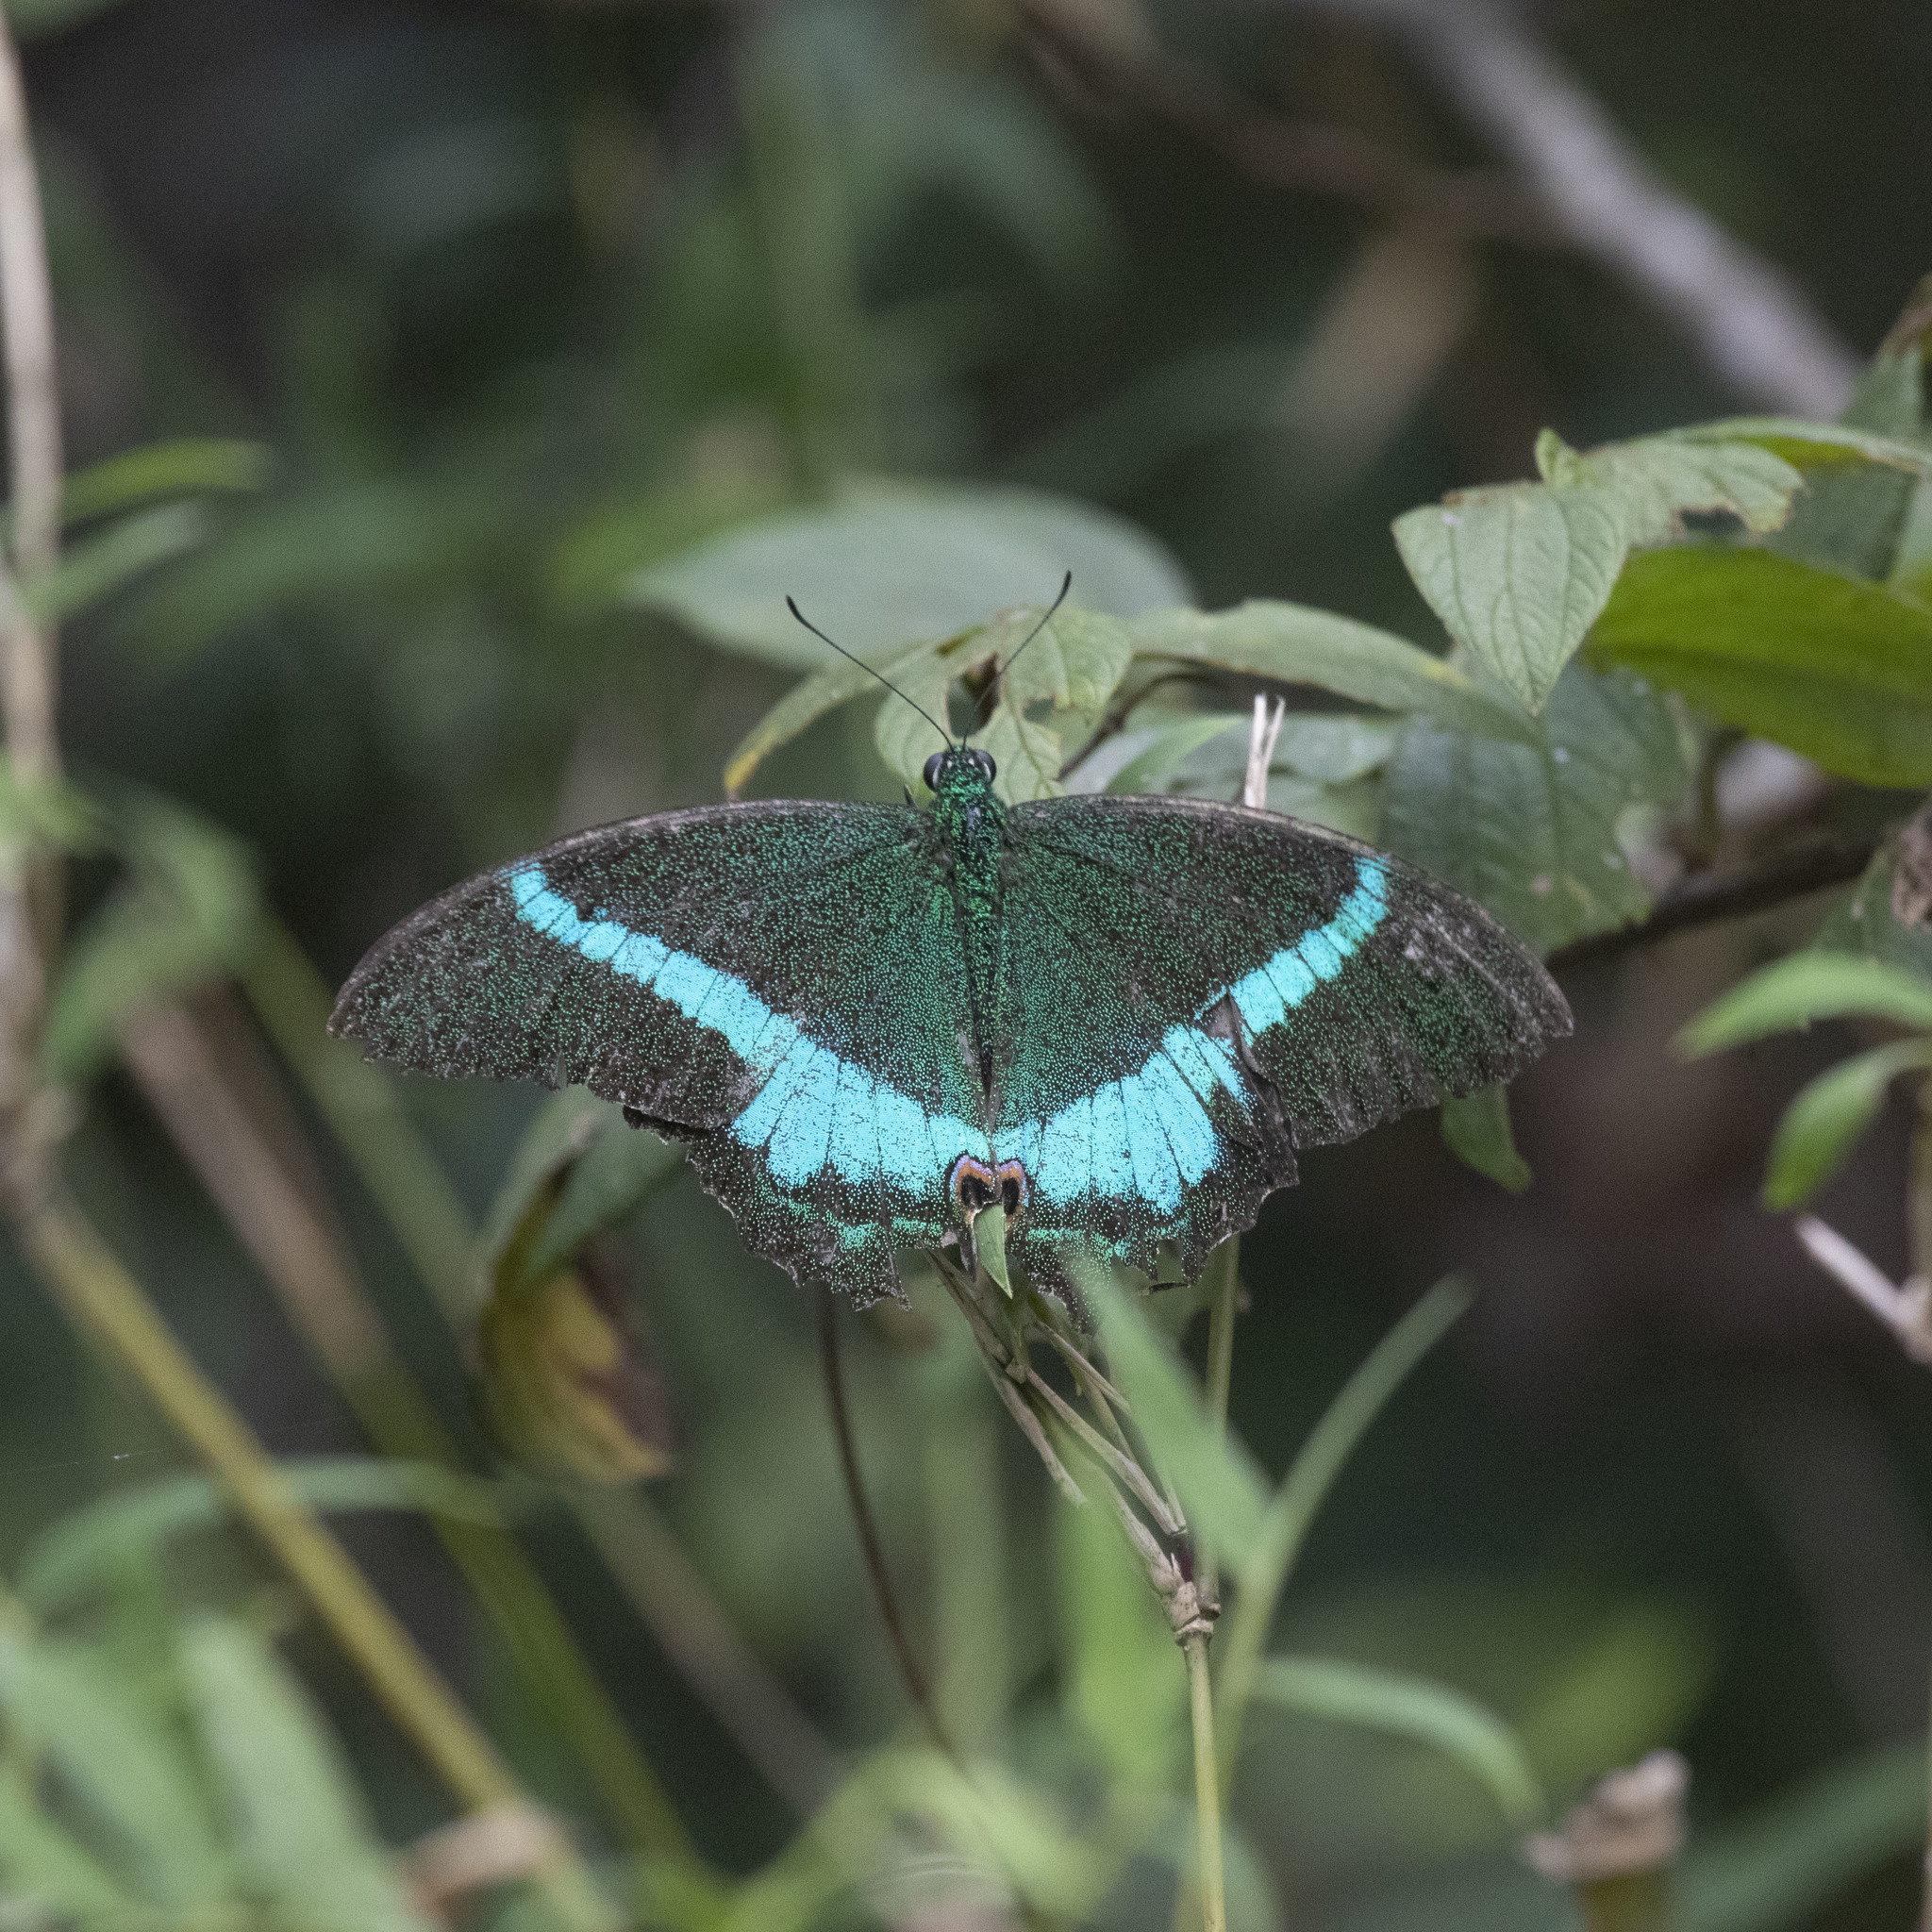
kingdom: Animalia
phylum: Arthropoda
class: Insecta
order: Lepidoptera
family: Papilionidae
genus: Papilio
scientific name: Papilio crino
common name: Common banded peacock
